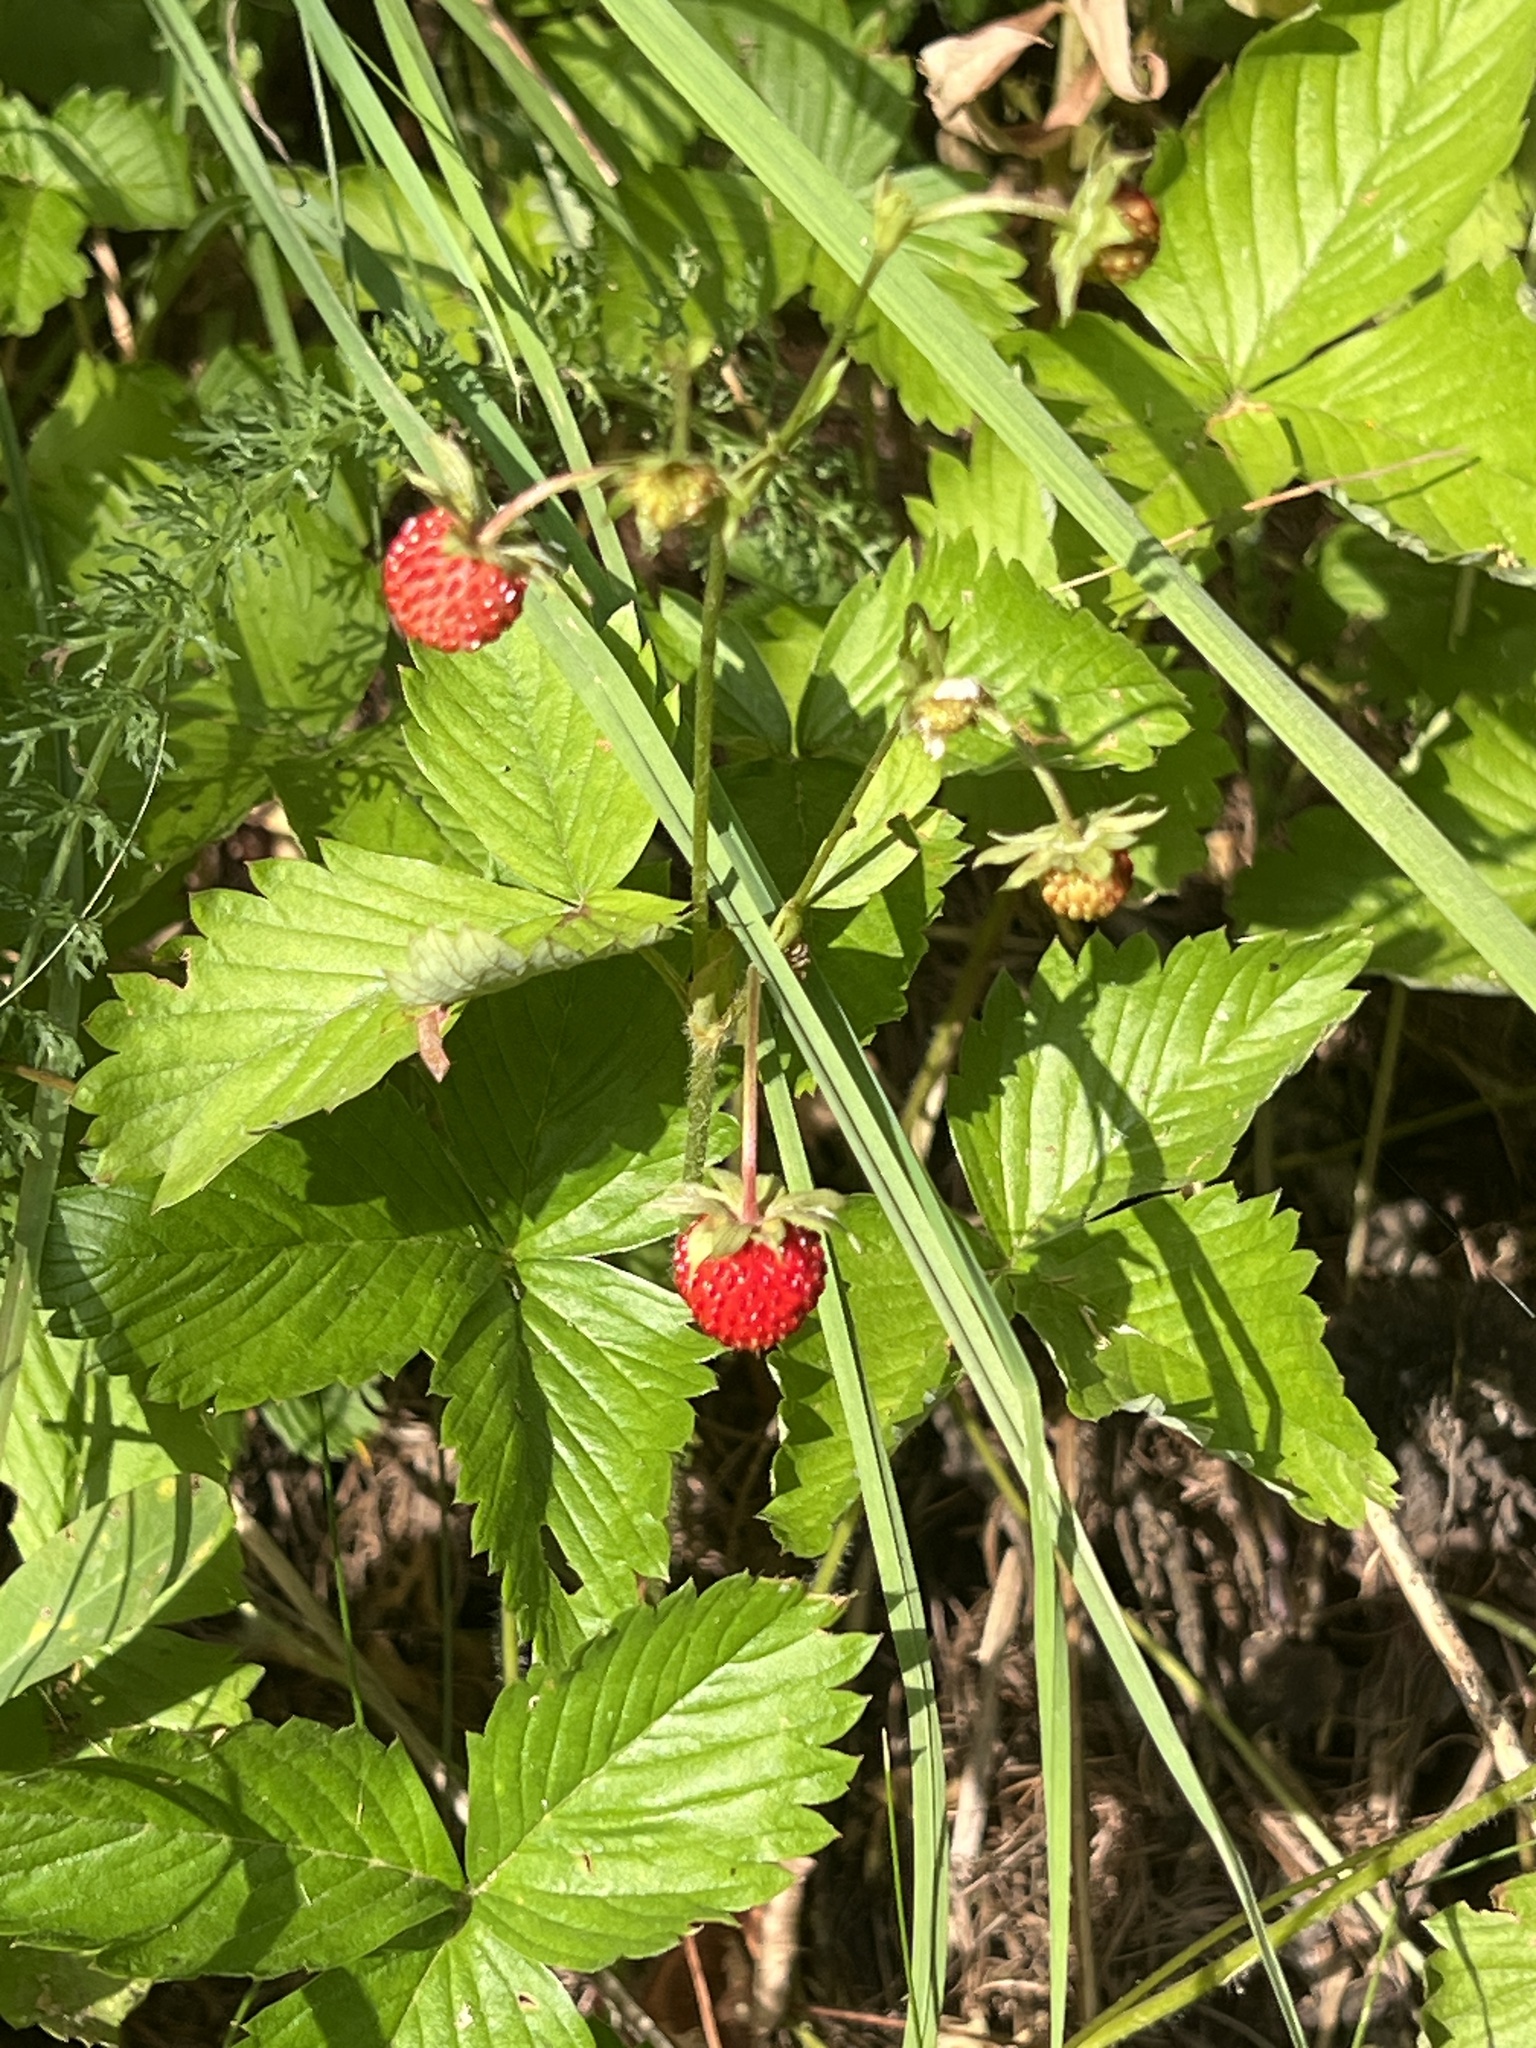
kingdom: Plantae
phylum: Tracheophyta
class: Magnoliopsida
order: Rosales
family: Rosaceae
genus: Fragaria
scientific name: Fragaria vesca
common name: Wild strawberry
